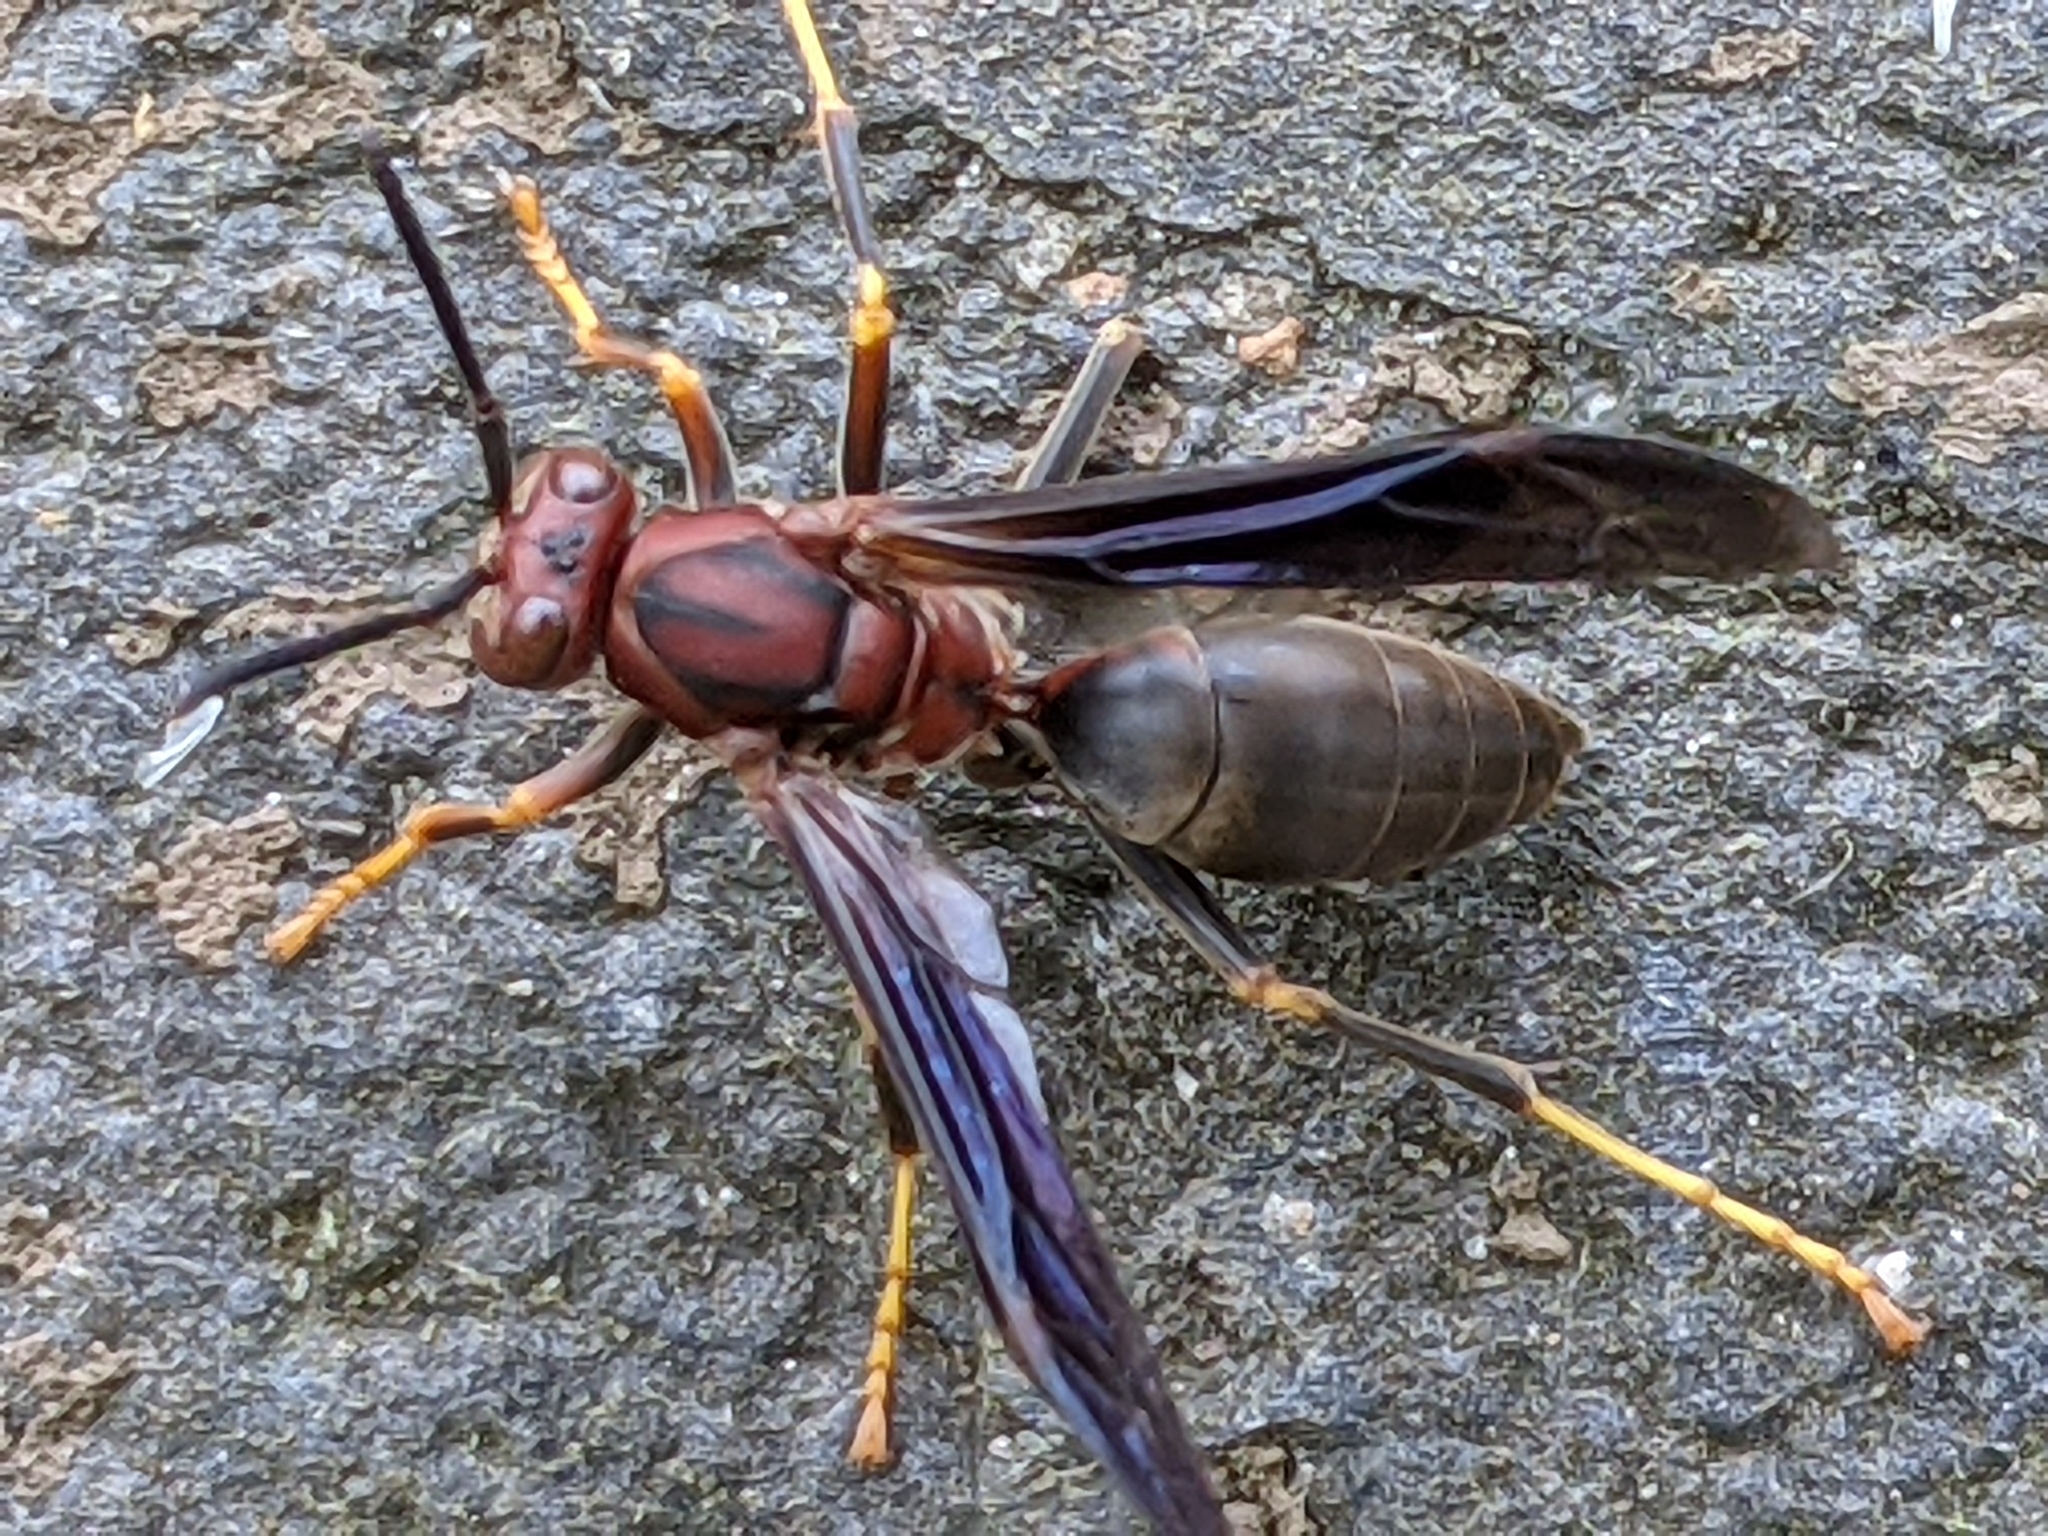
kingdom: Animalia
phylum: Arthropoda
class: Insecta
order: Hymenoptera
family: Eumenidae
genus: Polistes
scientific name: Polistes metricus
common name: Metric paper wasp
